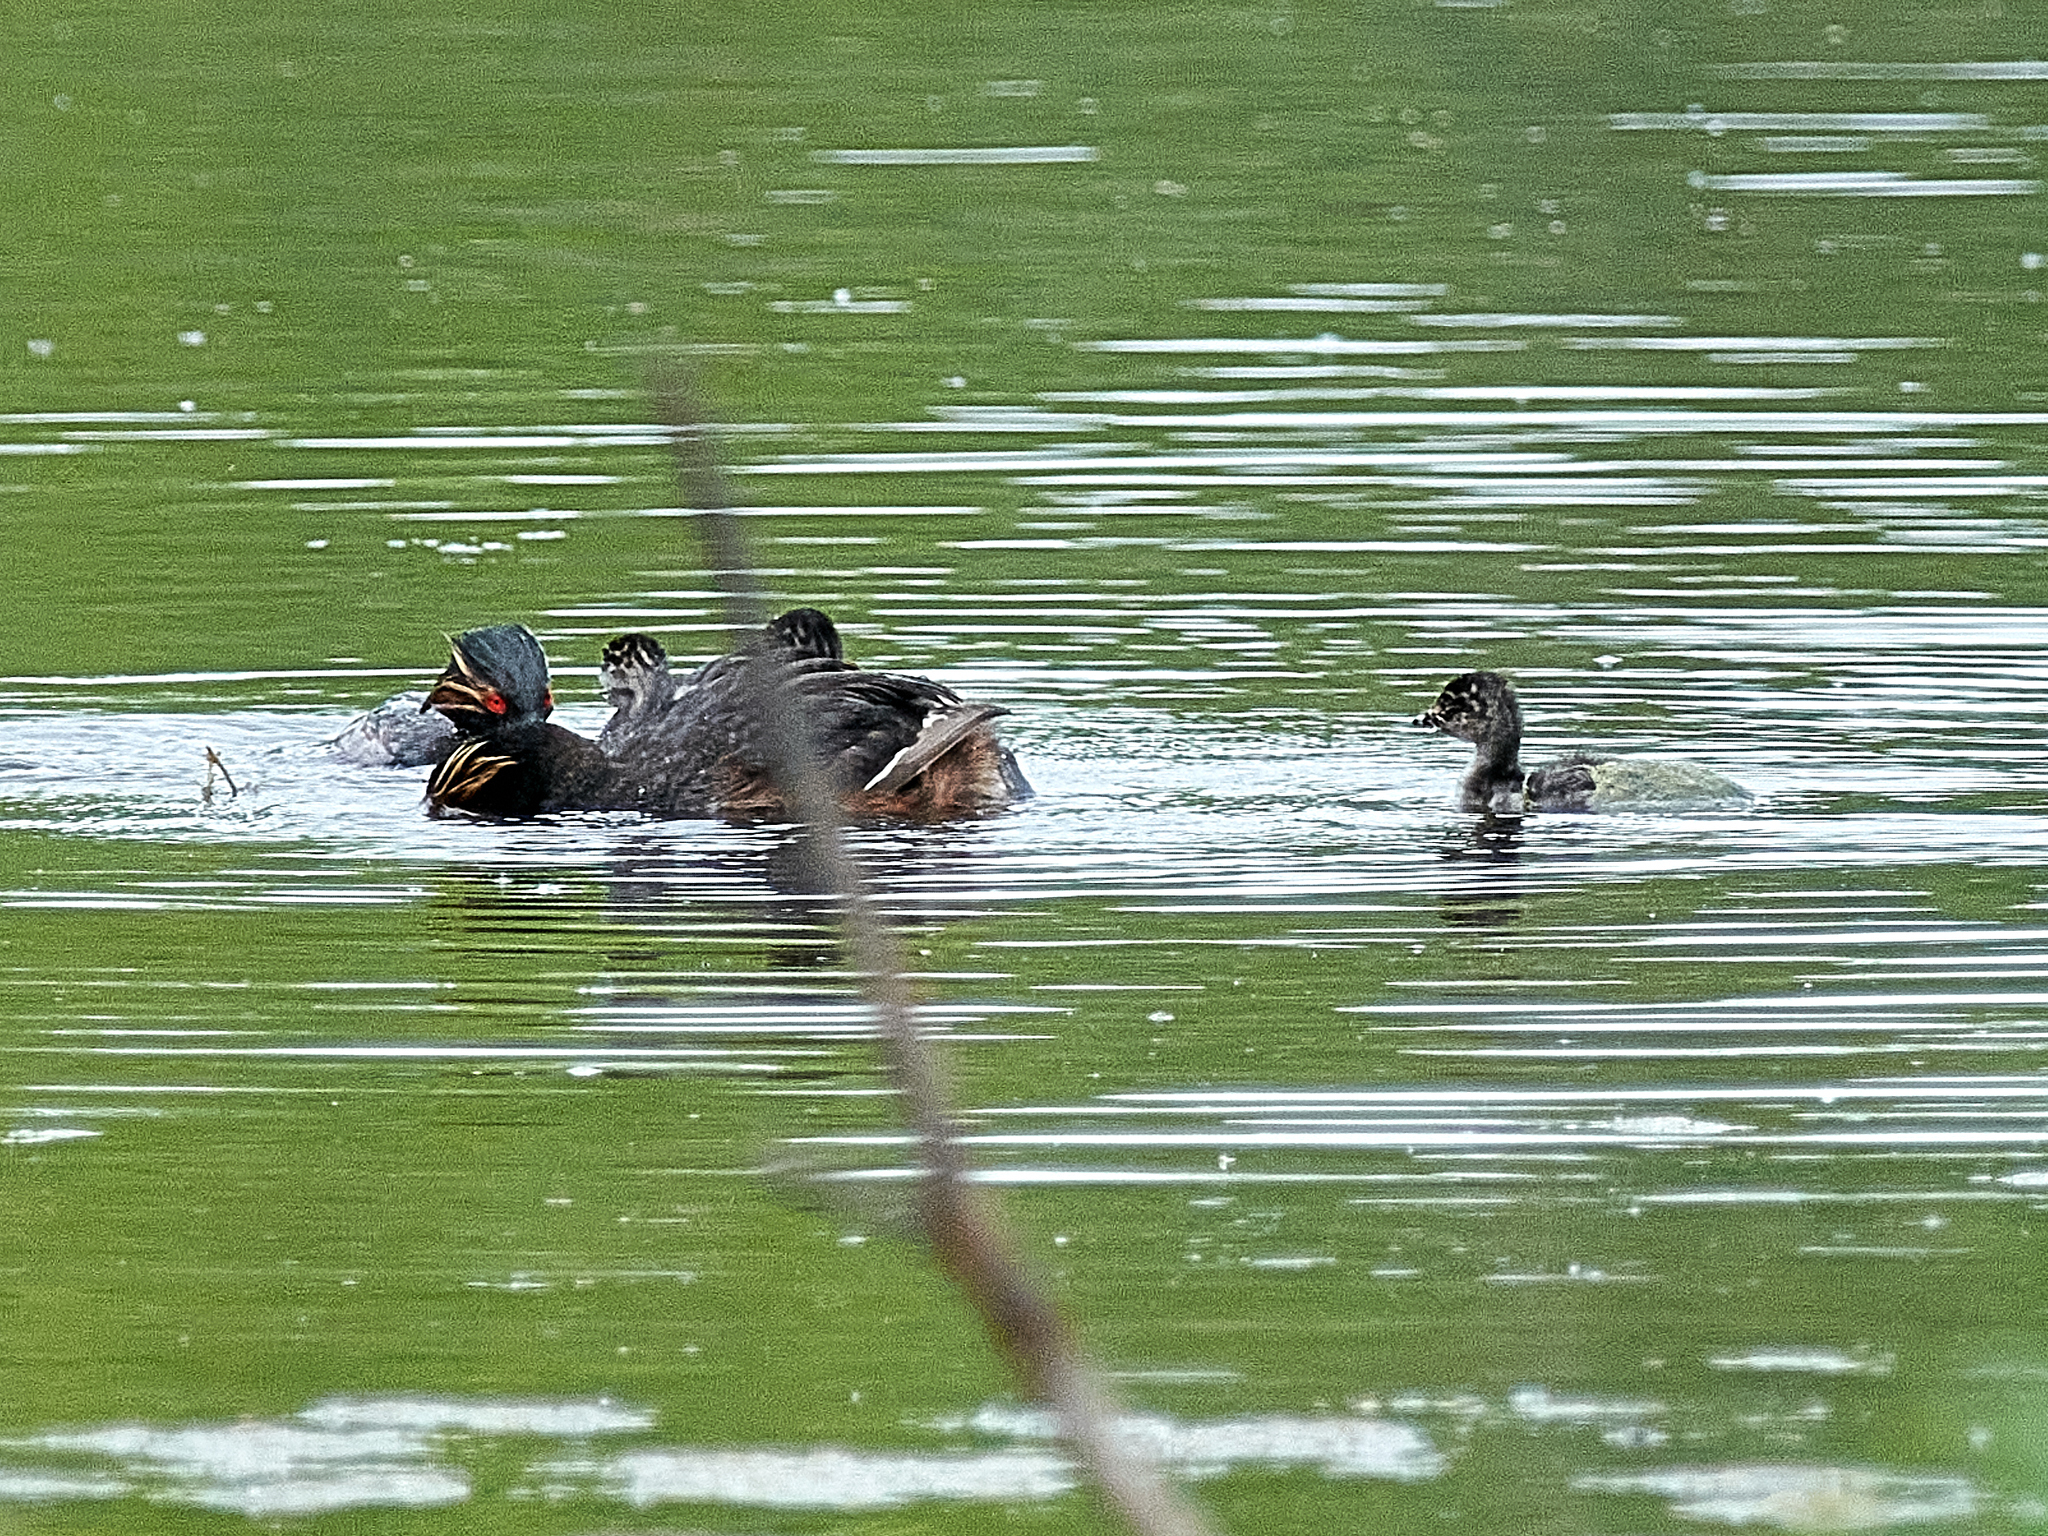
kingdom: Animalia
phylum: Chordata
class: Aves
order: Podicipediformes
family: Podicipedidae
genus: Podiceps
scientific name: Podiceps nigricollis
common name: Black-necked grebe
